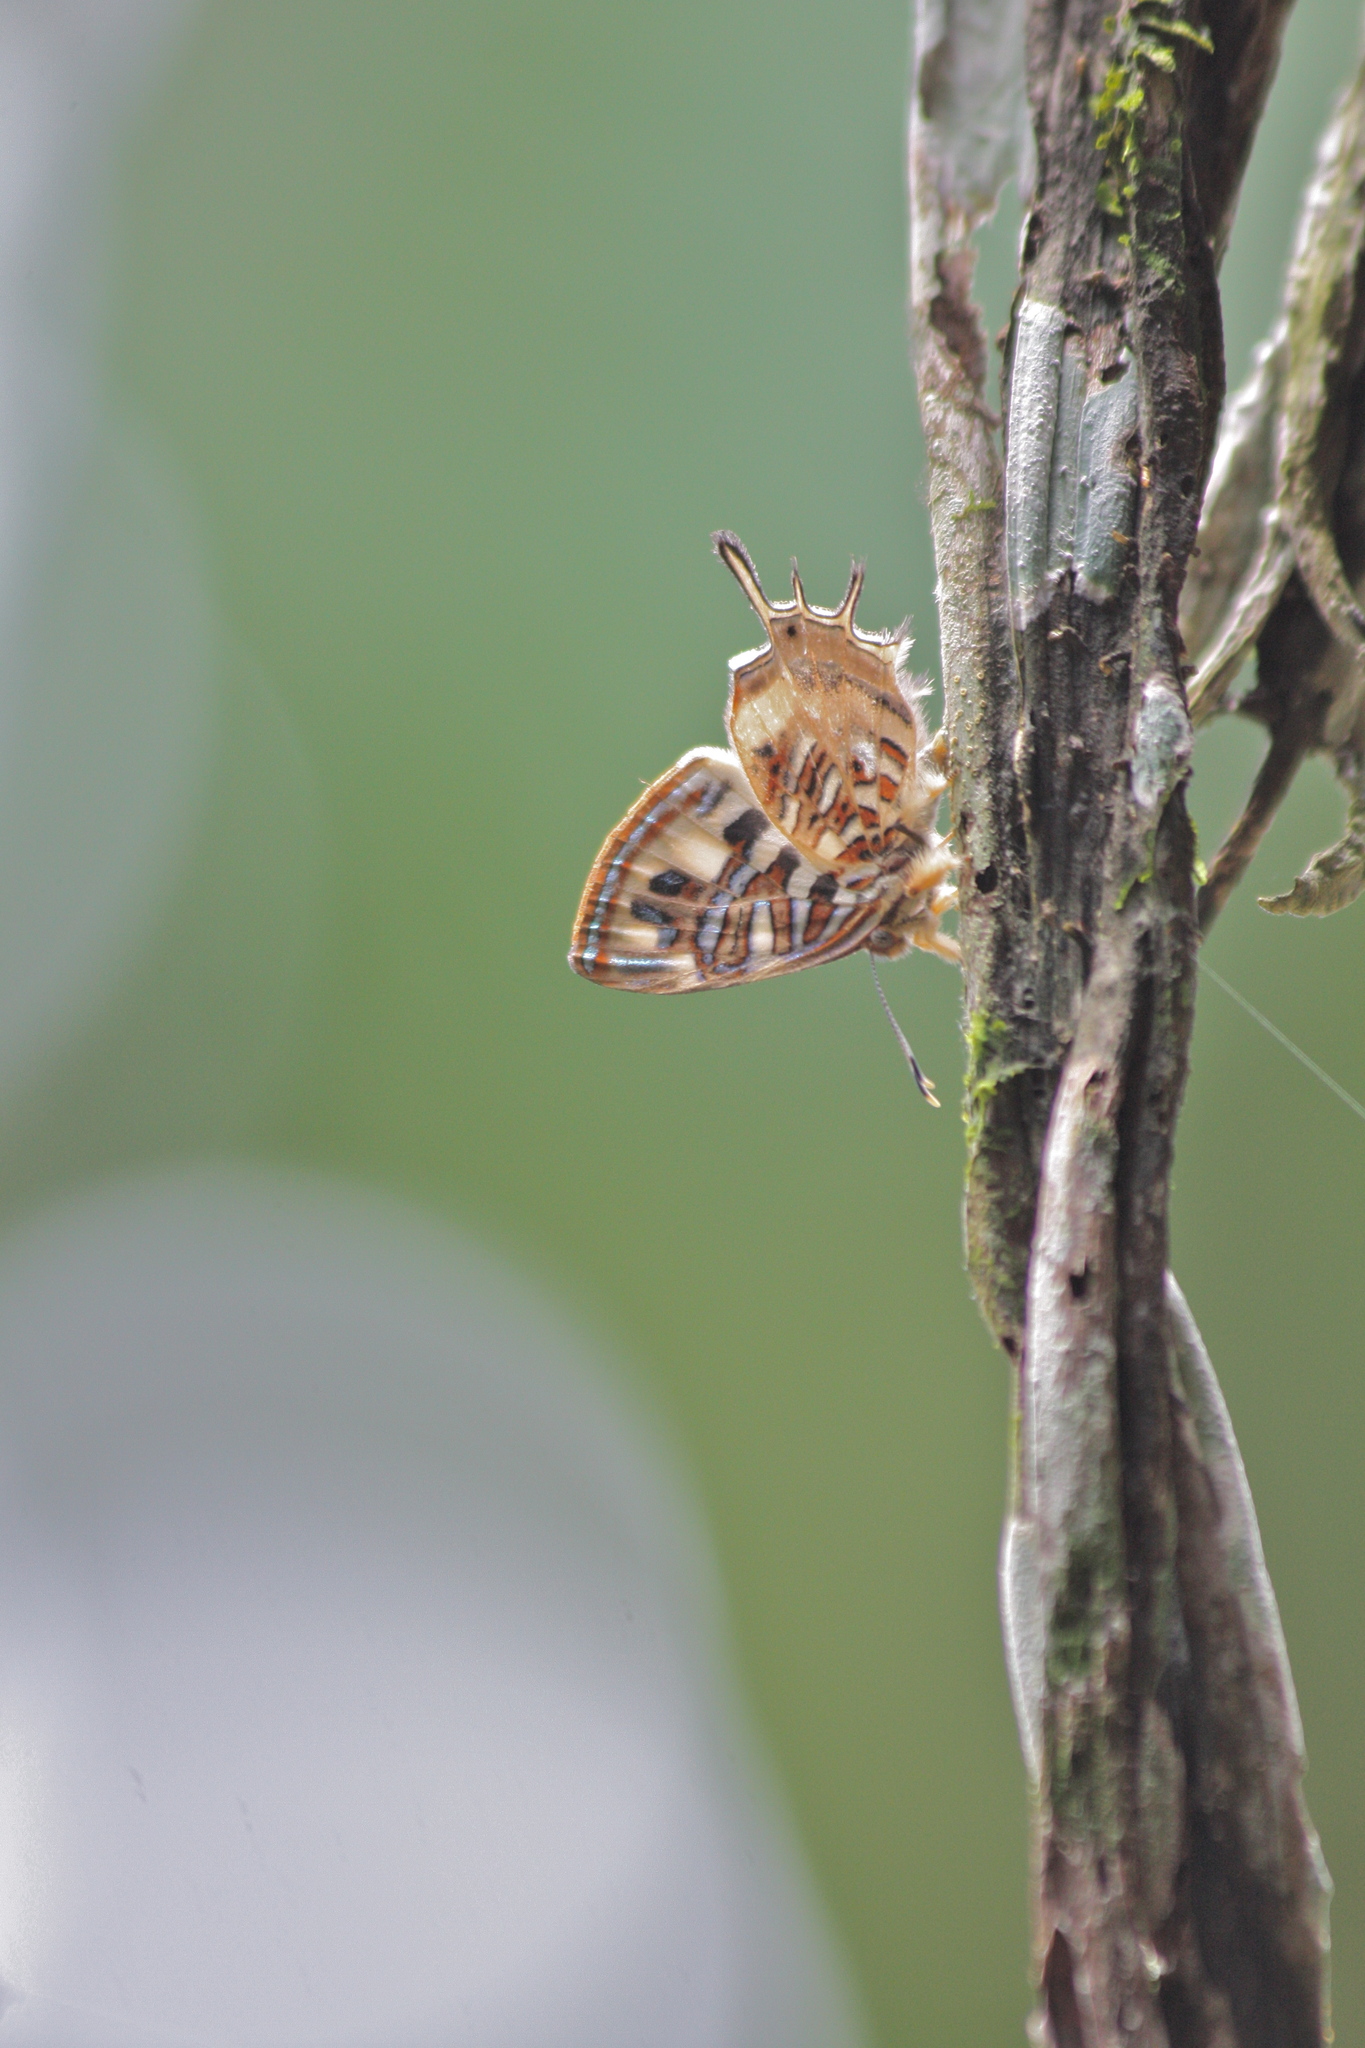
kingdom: Animalia
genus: Charis
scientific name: Charis Sarota chrysus
